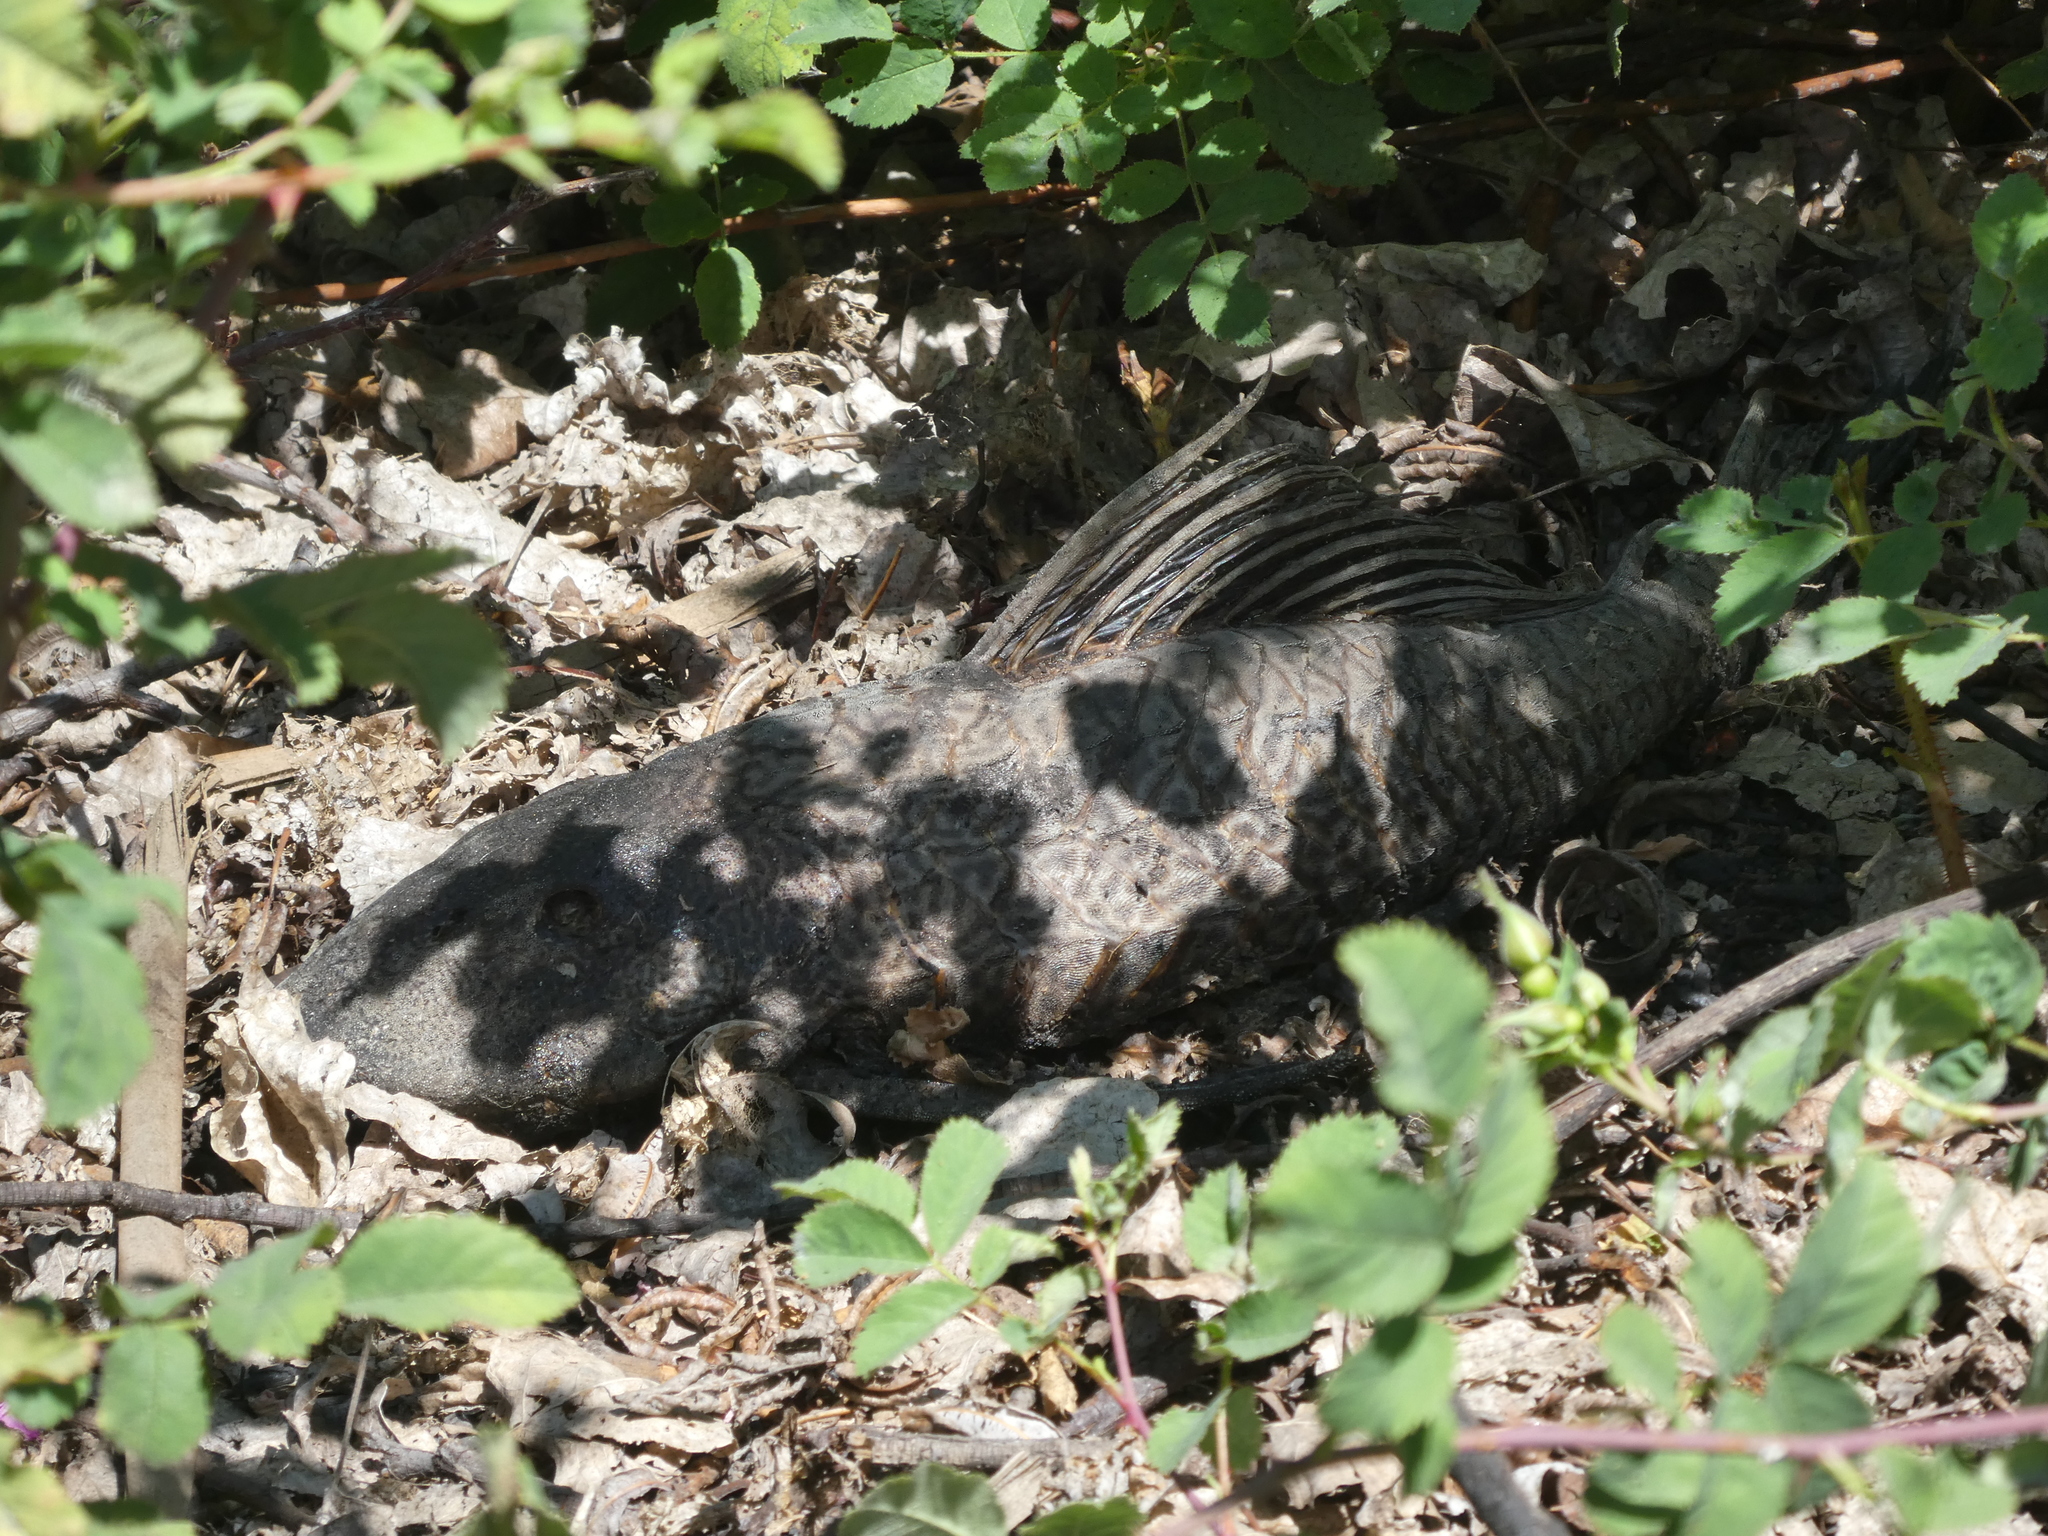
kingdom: Animalia
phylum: Chordata
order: Siluriformes
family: Loricariidae
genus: Pterygoplichthys
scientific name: Pterygoplichthys
